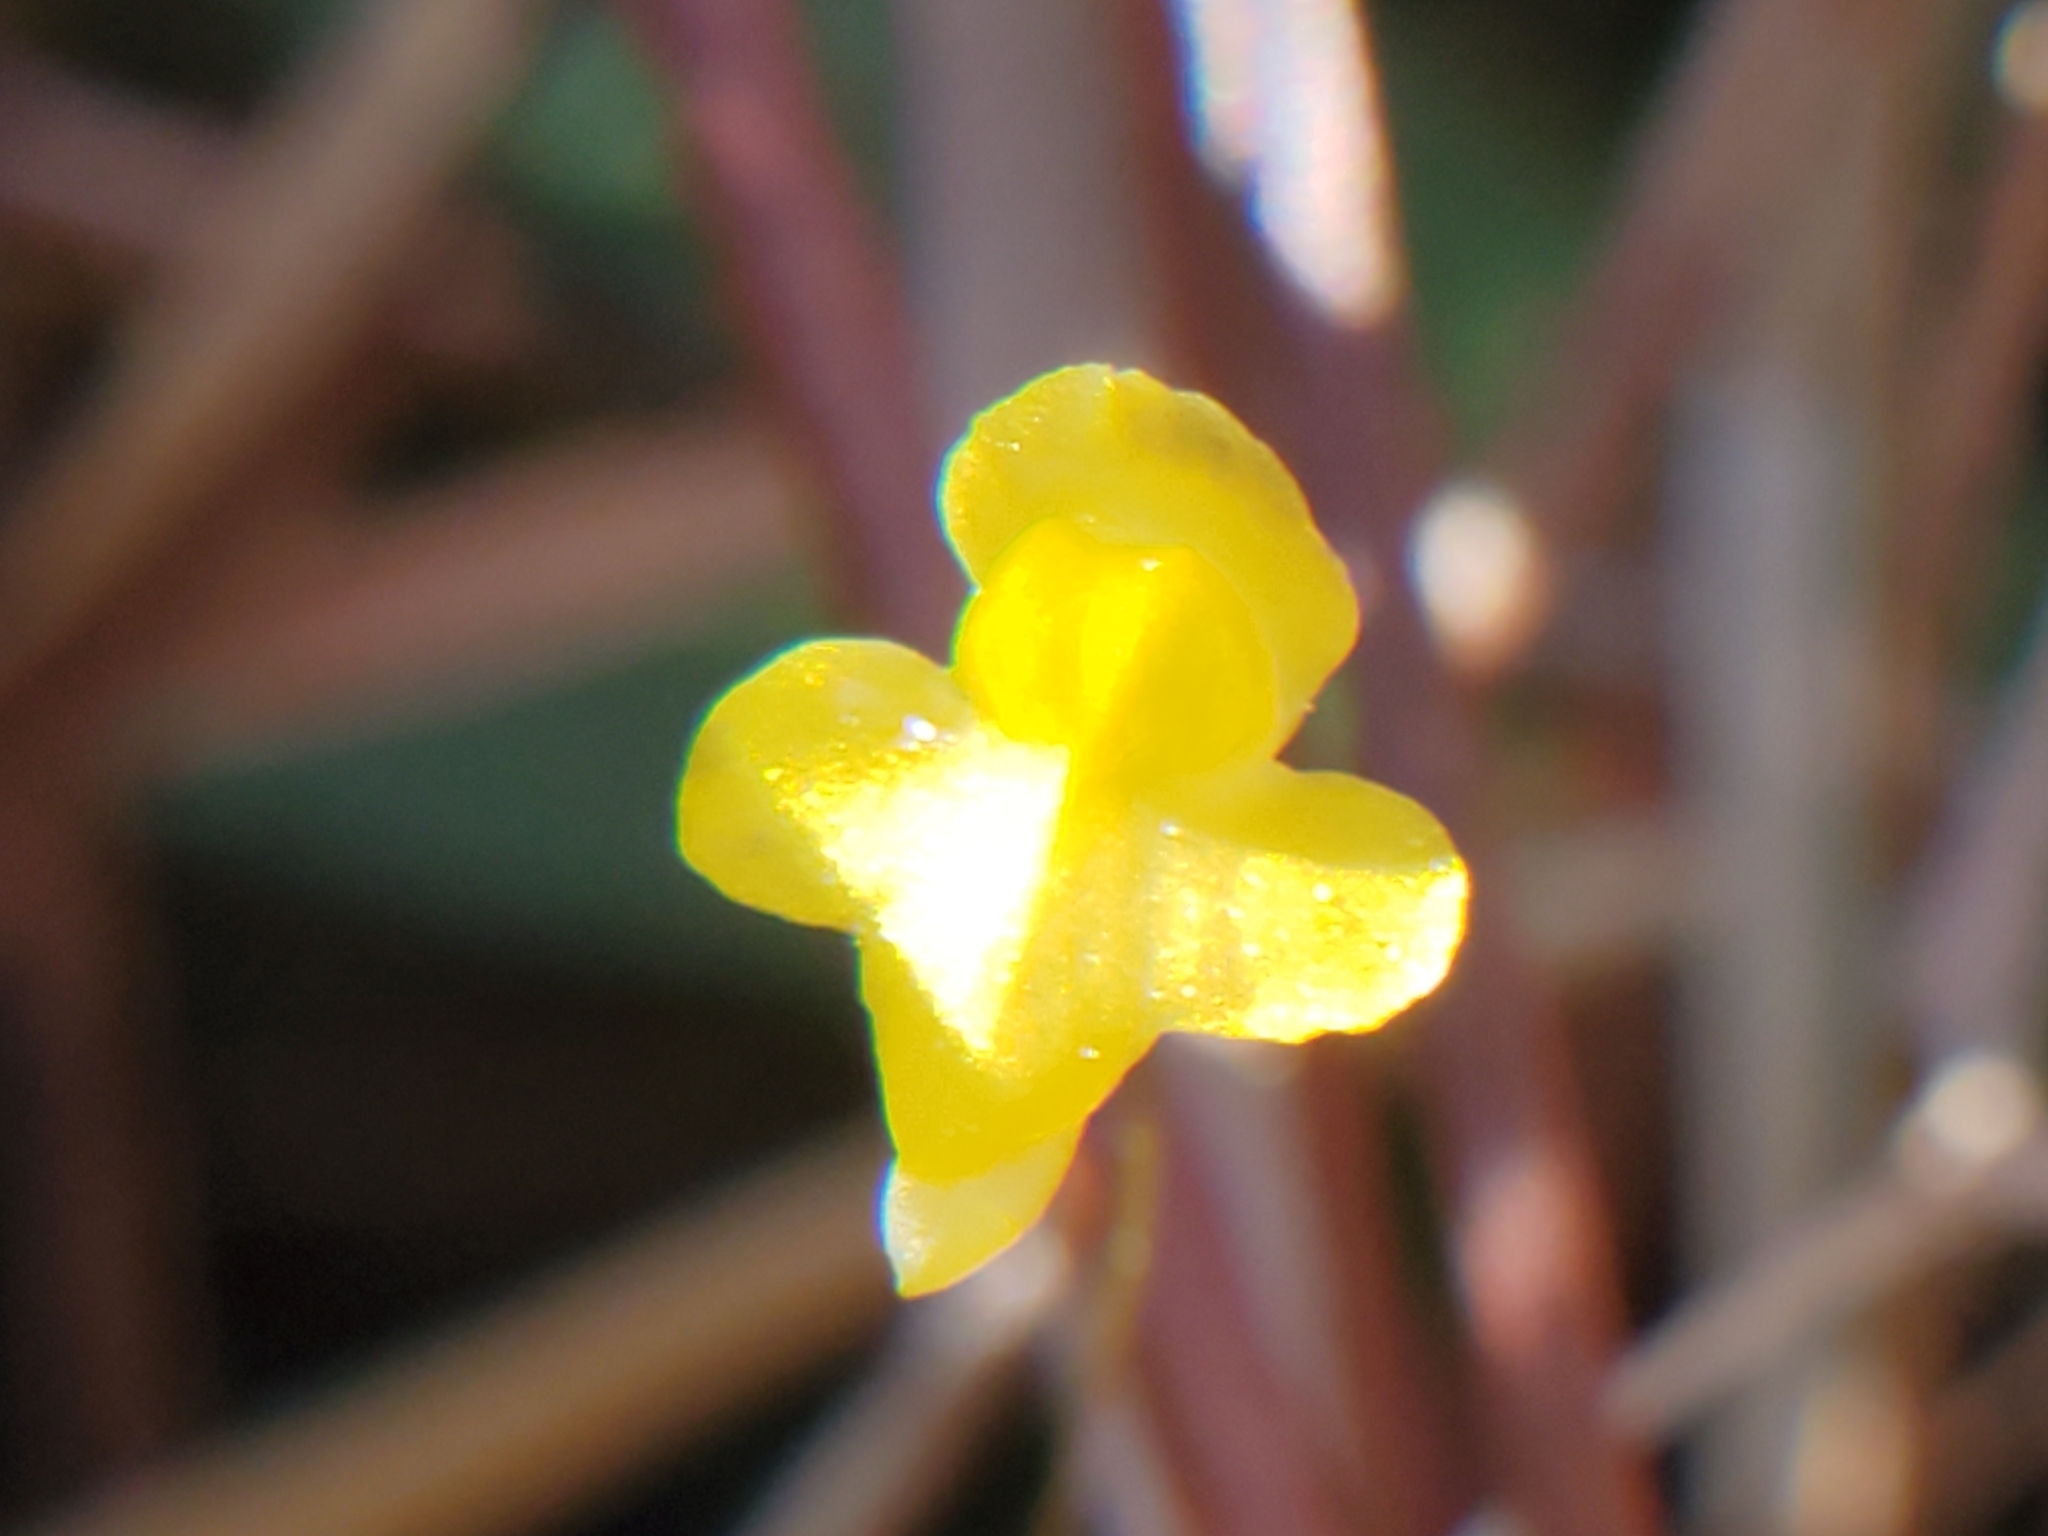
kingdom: Plantae
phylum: Tracheophyta
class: Magnoliopsida
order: Lamiales
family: Lentibulariaceae
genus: Utricularia
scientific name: Utricularia subulata
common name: Tiny bladderwort
